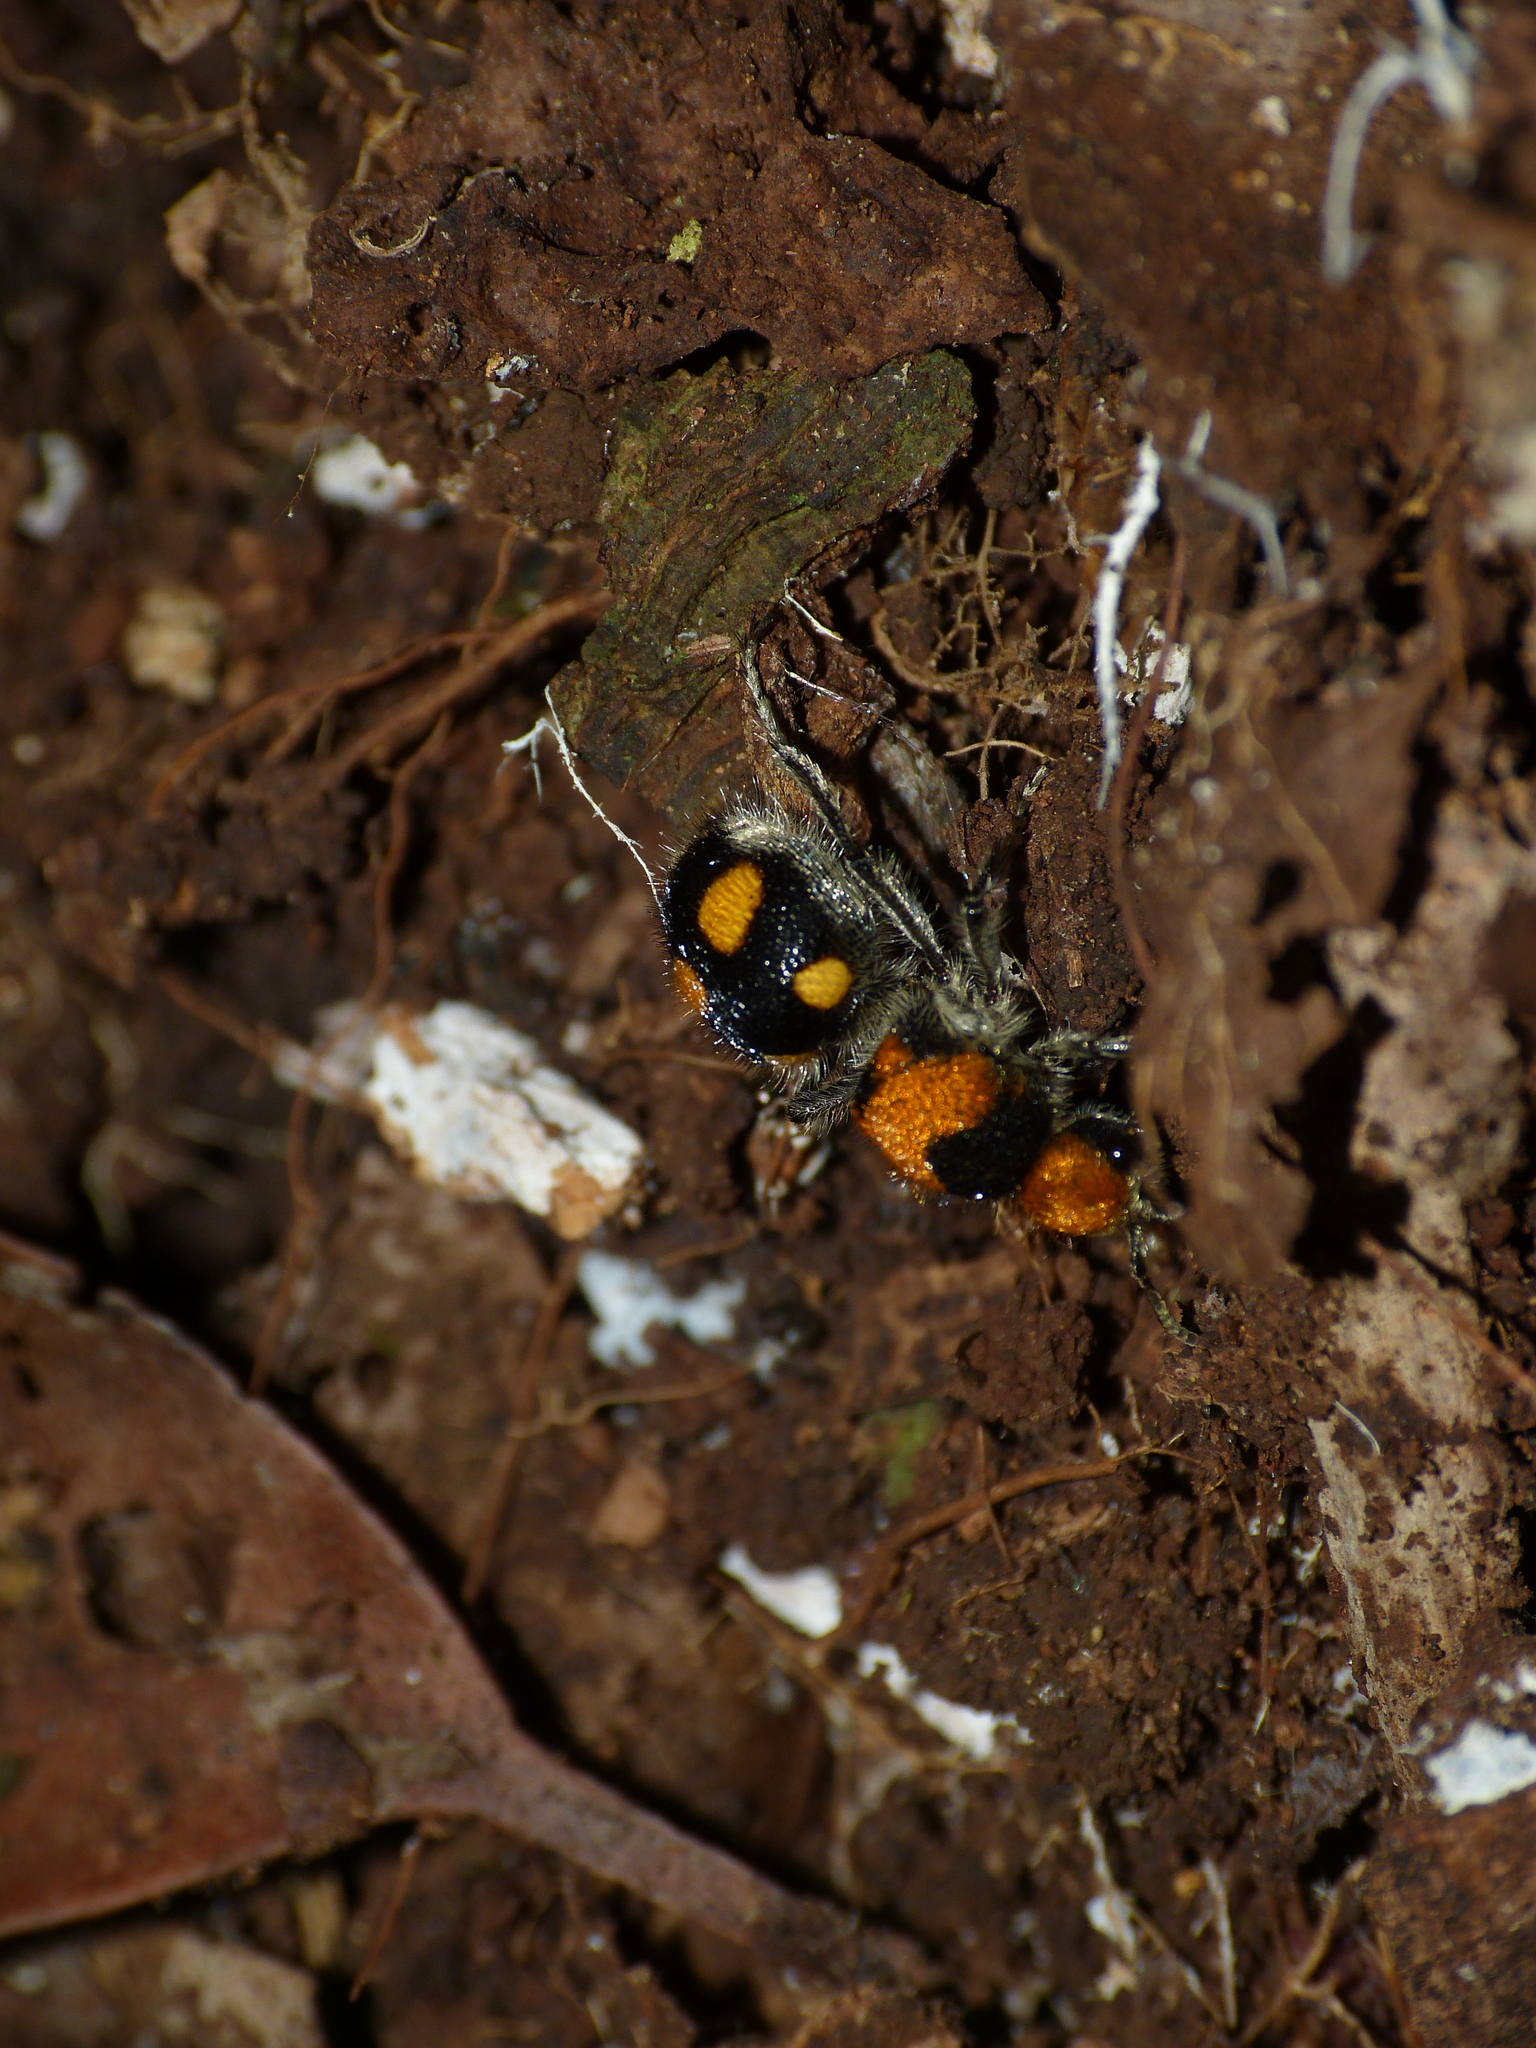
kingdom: Animalia
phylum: Arthropoda
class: Insecta
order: Hymenoptera
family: Mutillidae
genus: Dasymutilla
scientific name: Dasymutilla
